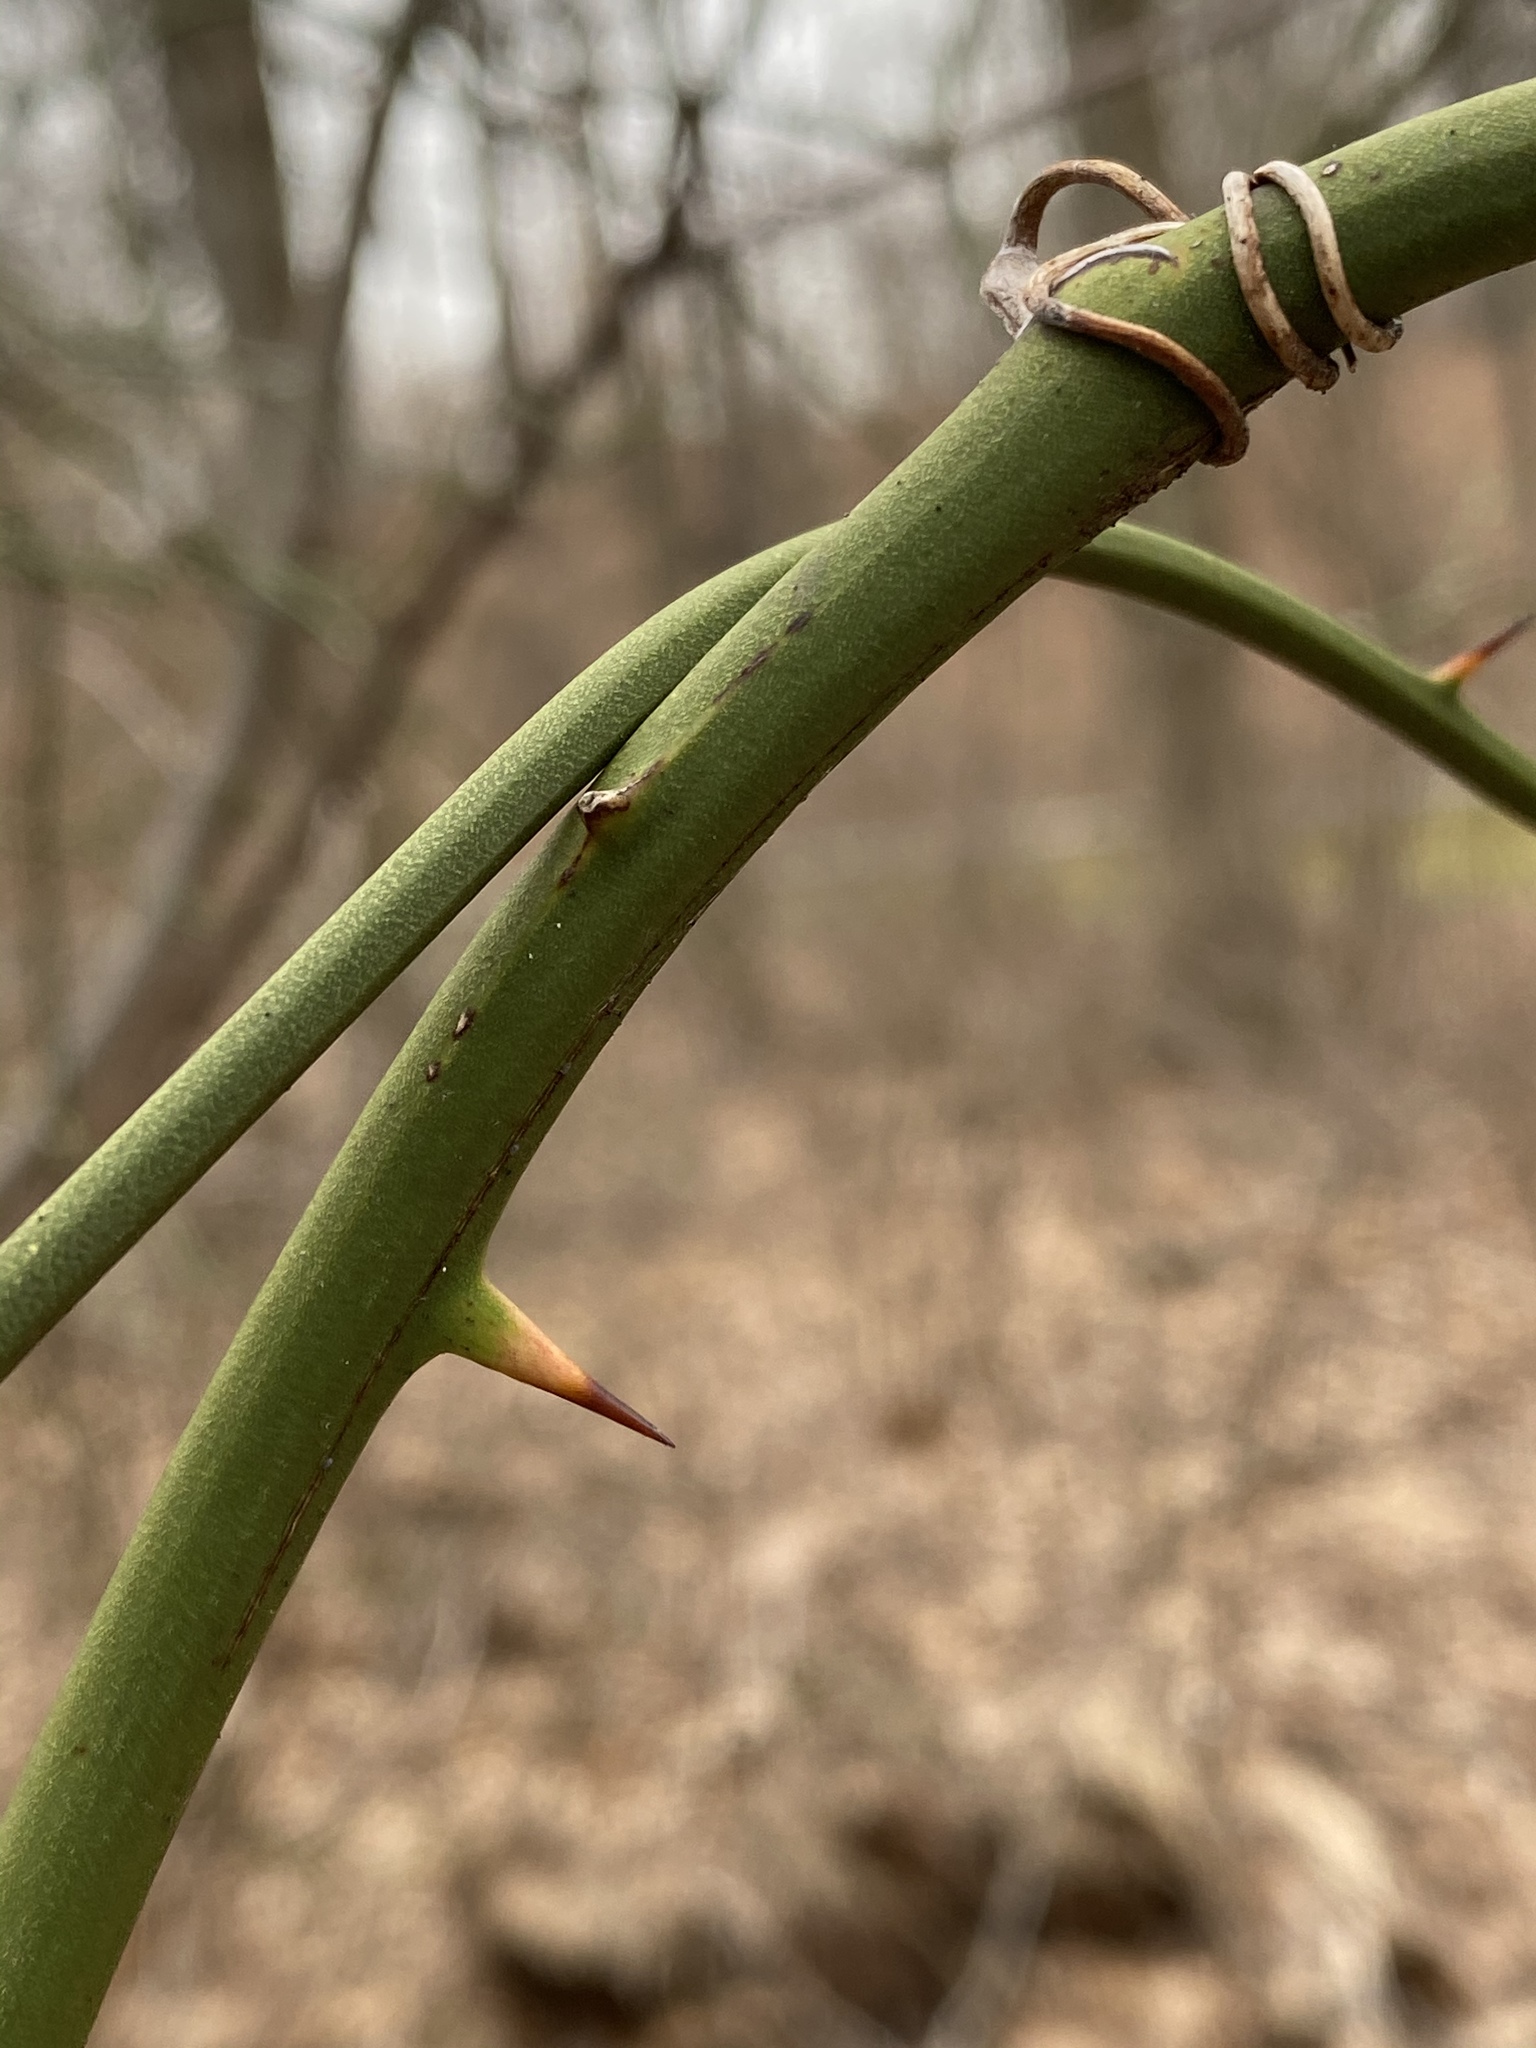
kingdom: Plantae
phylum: Tracheophyta
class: Liliopsida
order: Liliales
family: Smilacaceae
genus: Smilax
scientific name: Smilax rotundifolia
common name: Bullbriar
